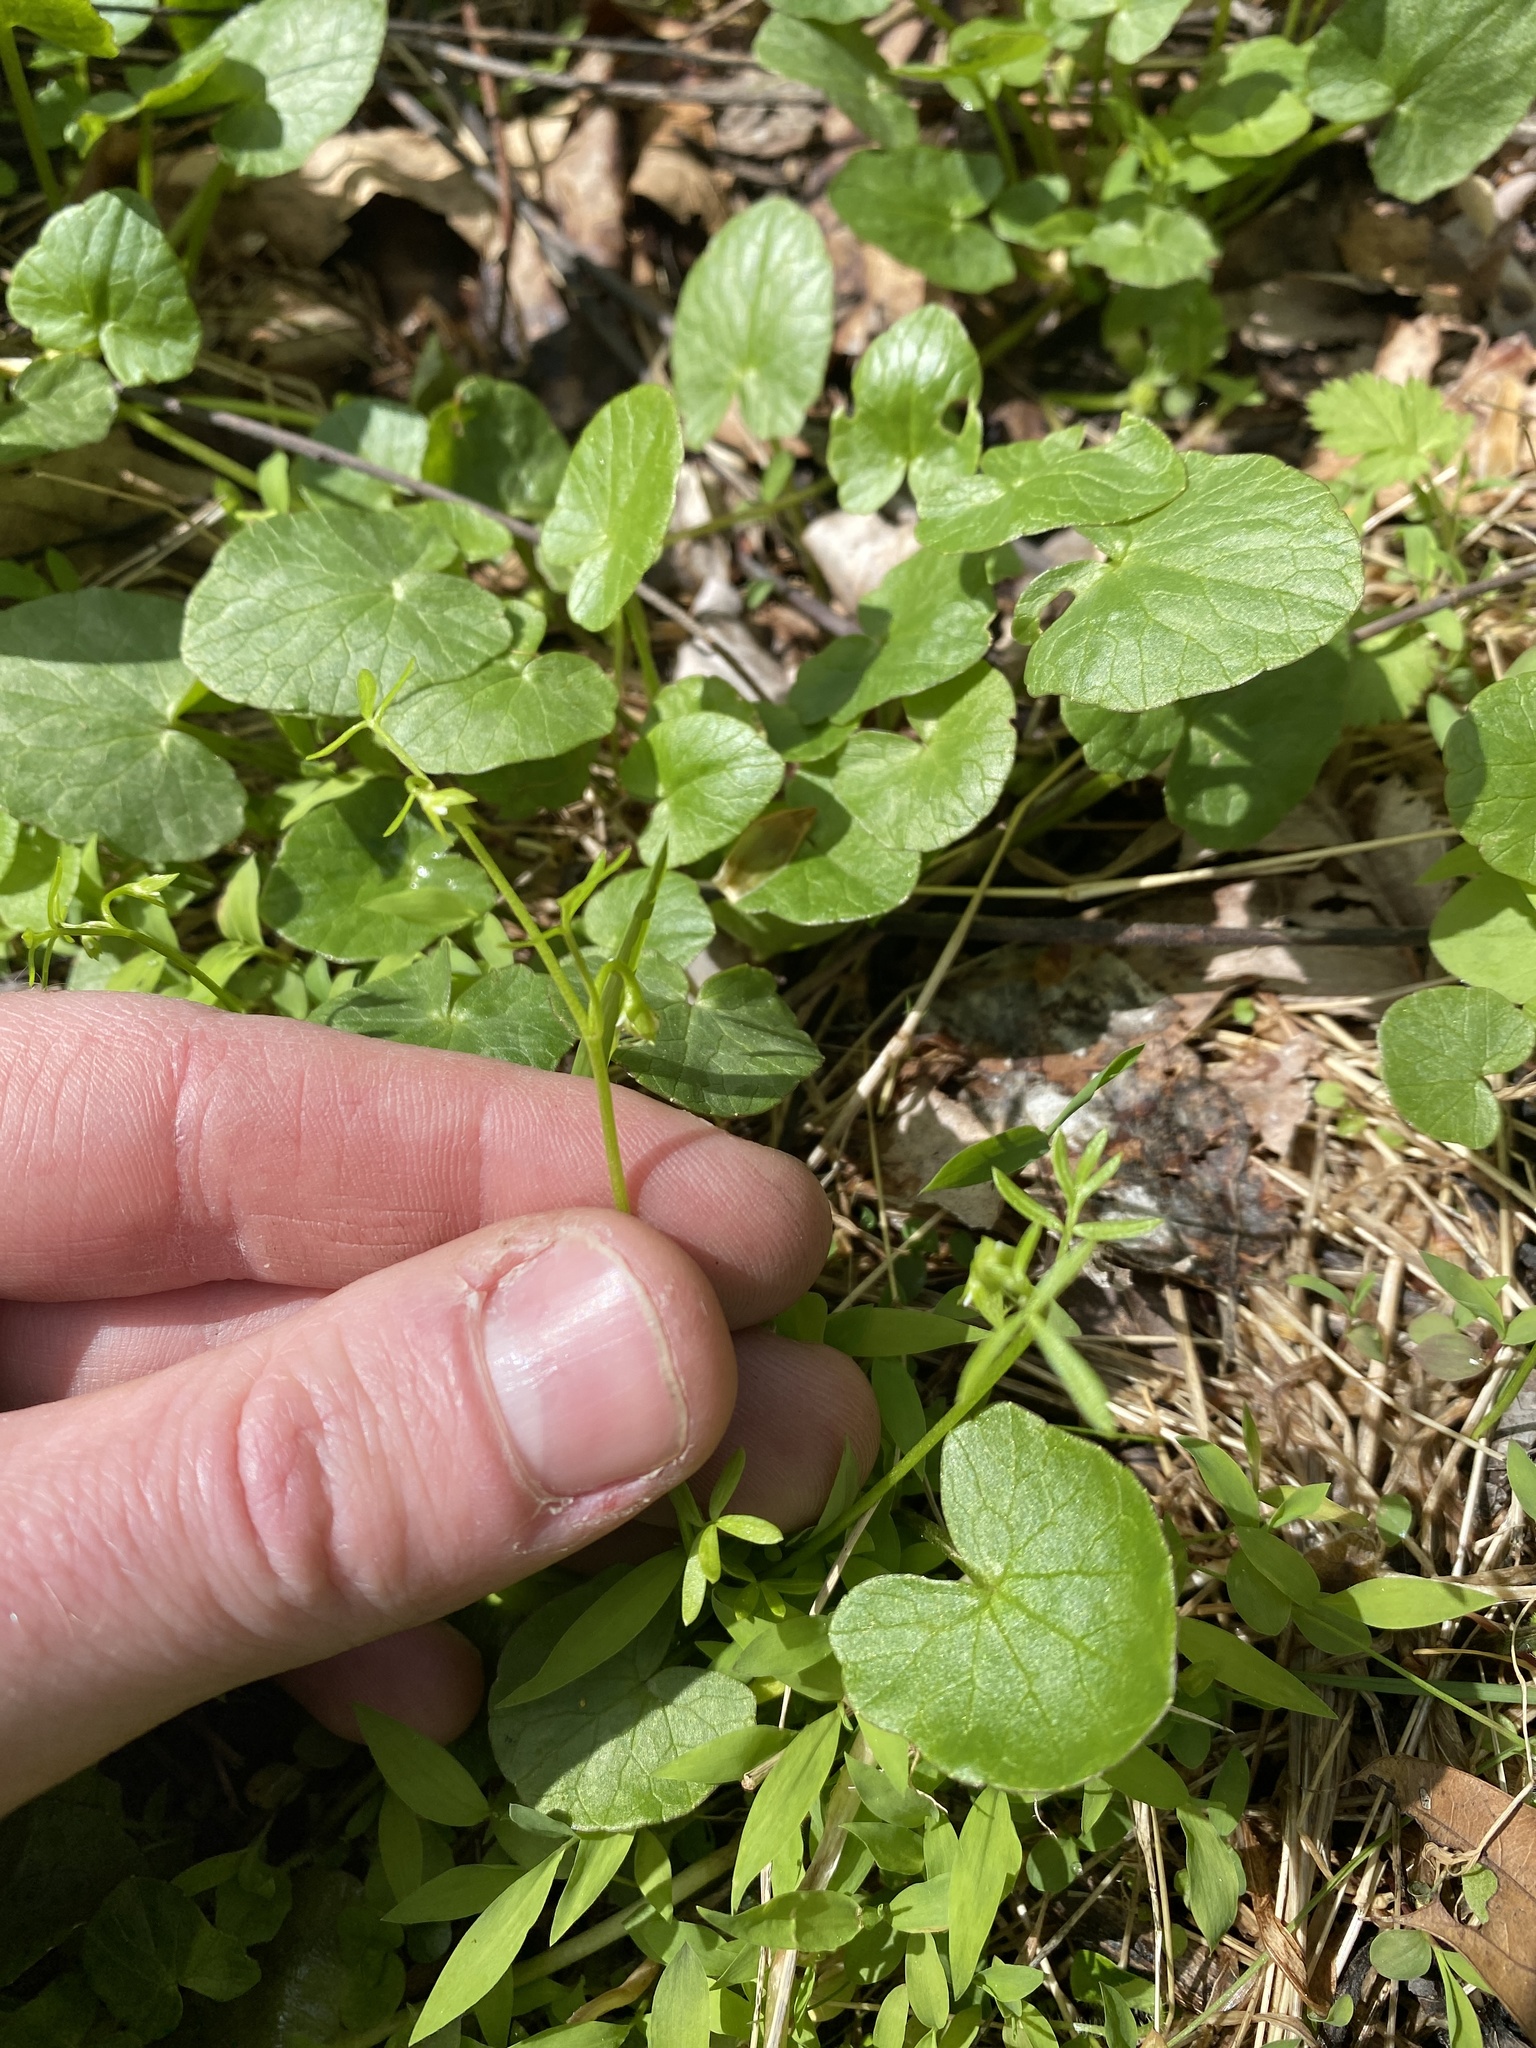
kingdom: Plantae
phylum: Tracheophyta
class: Magnoliopsida
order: Brassicales
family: Limnanthaceae
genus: Floerkea
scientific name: Floerkea proserpinacoides
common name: False mermaid
